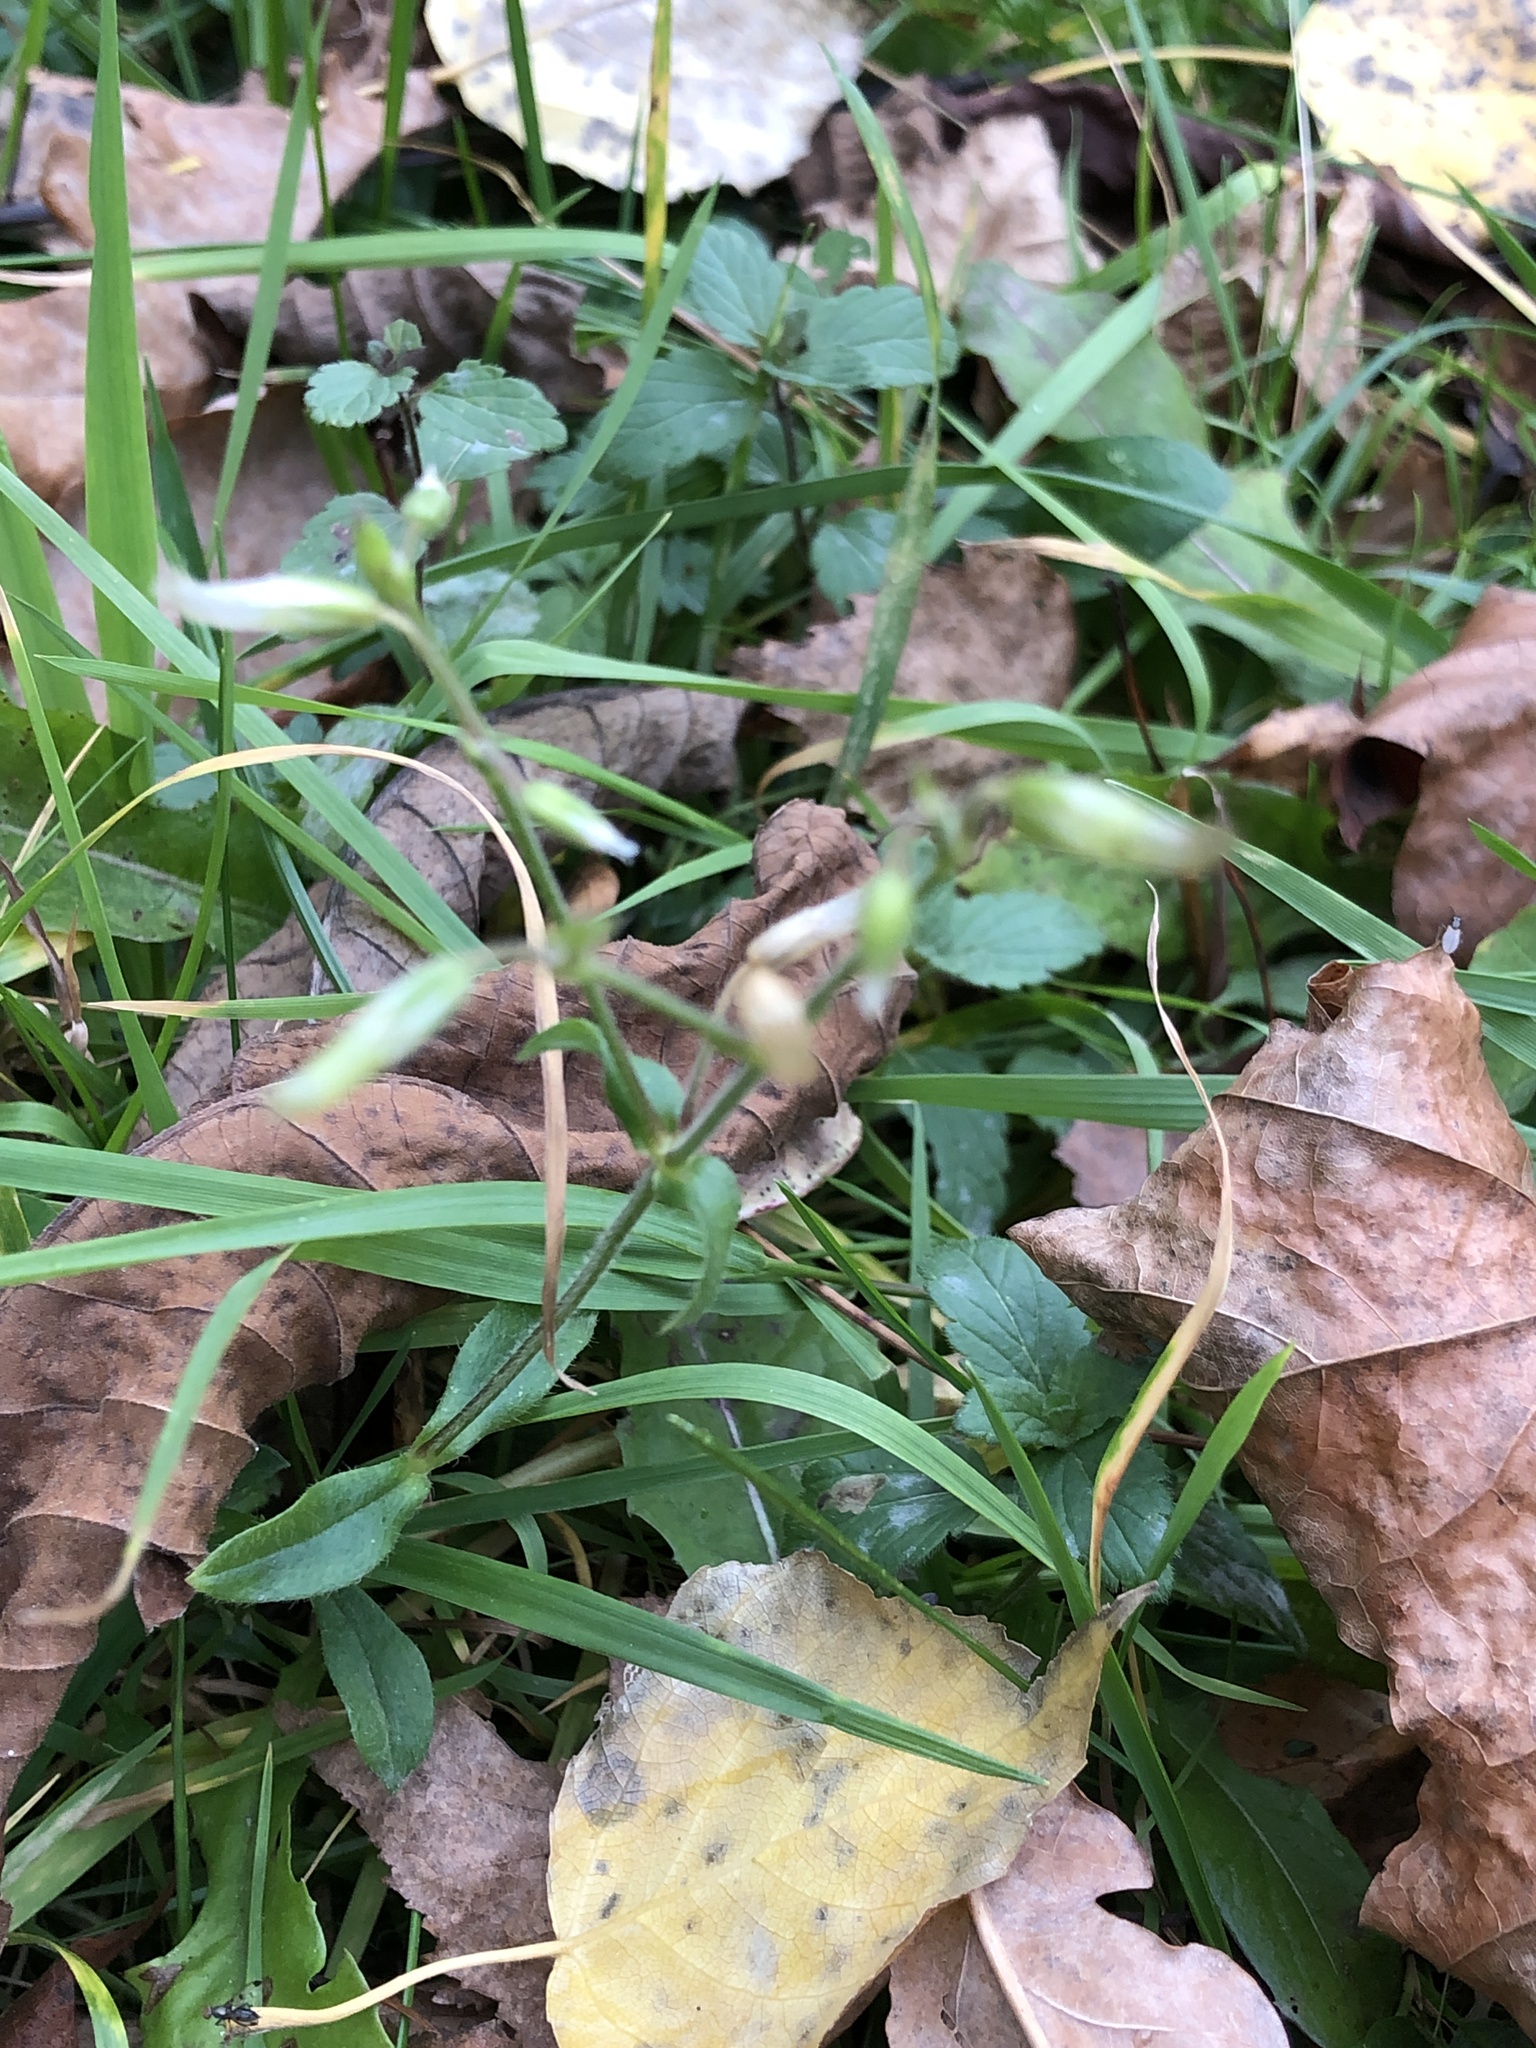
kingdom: Plantae
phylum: Tracheophyta
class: Magnoliopsida
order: Caryophyllales
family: Caryophyllaceae
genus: Cerastium
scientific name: Cerastium holosteoides
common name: Big chickweed
